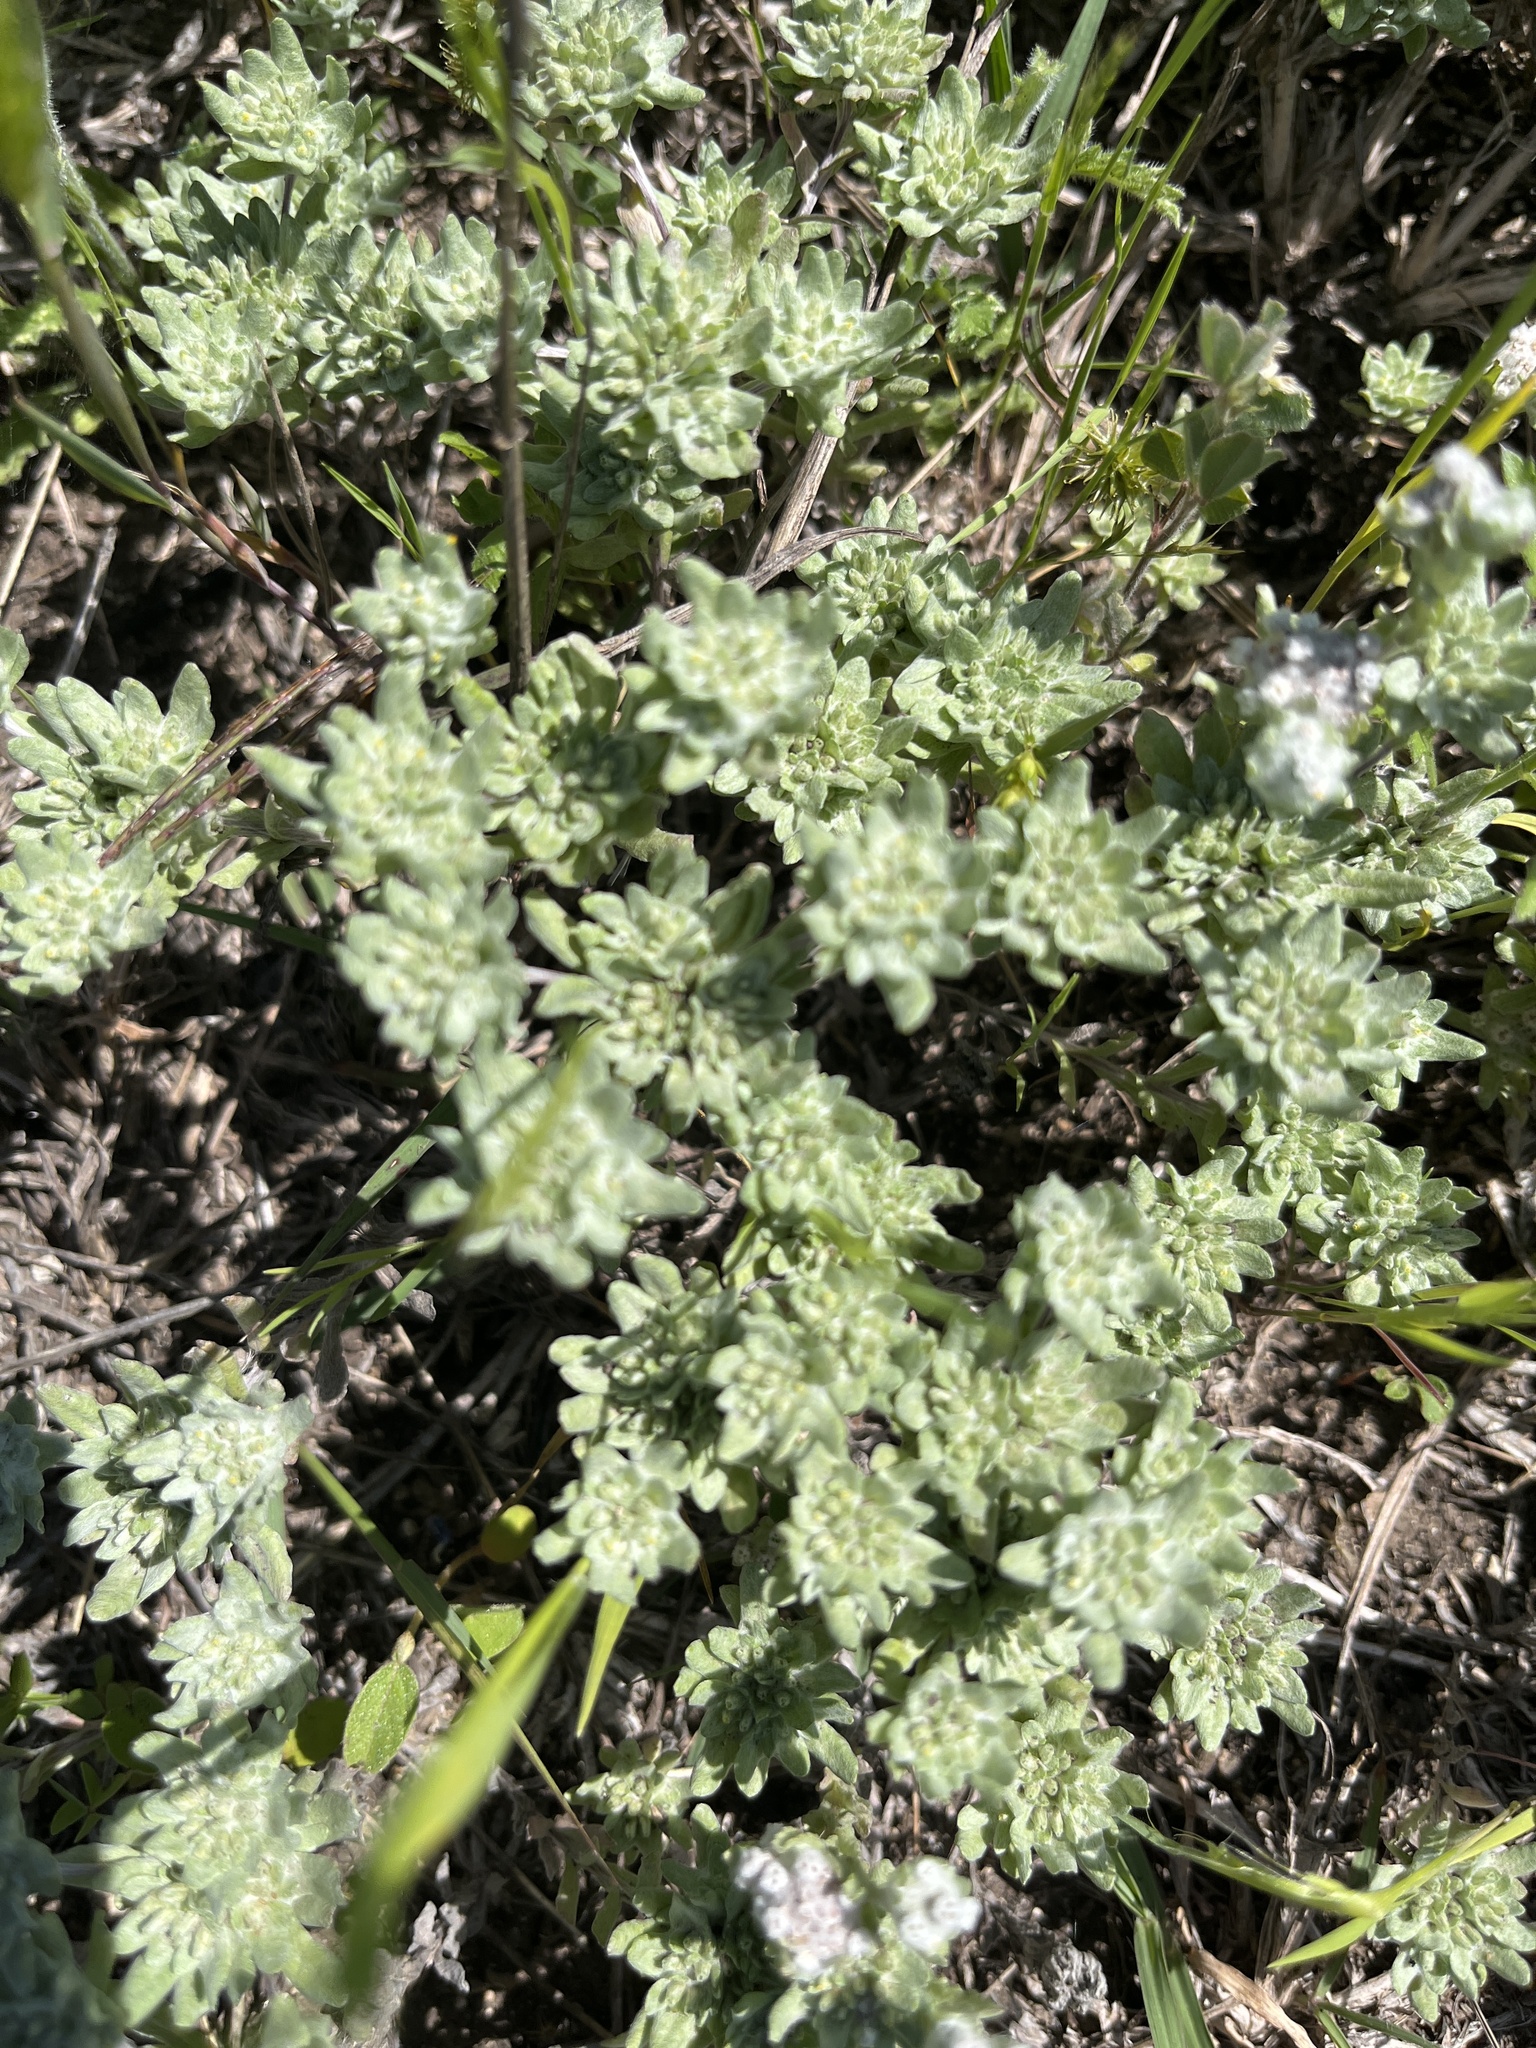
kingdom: Plantae
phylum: Tracheophyta
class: Magnoliopsida
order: Asterales
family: Asteraceae
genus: Diaperia
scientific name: Diaperia prolifera
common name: Big-head rabbit-tobacco
